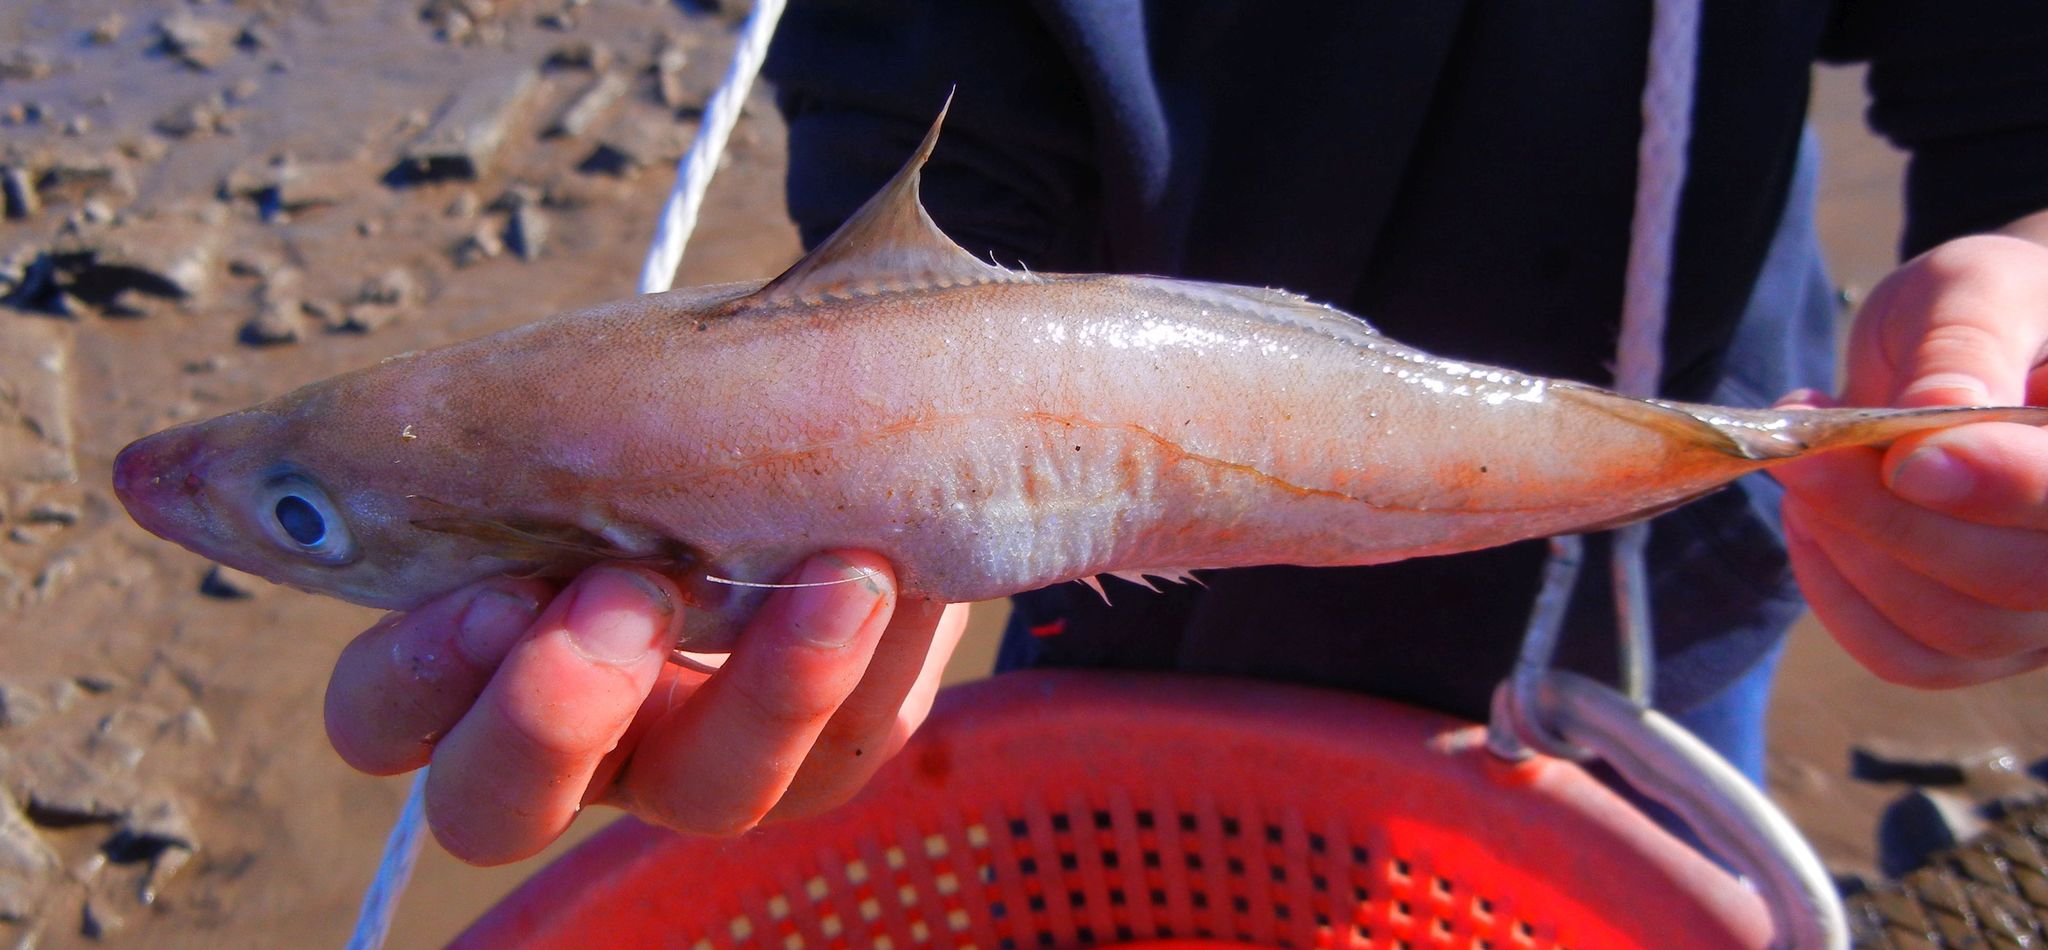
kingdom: Animalia
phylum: Chordata
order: Gadiformes
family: Gadidae
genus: Merlangius
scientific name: Merlangius merlangus
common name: Whiting
